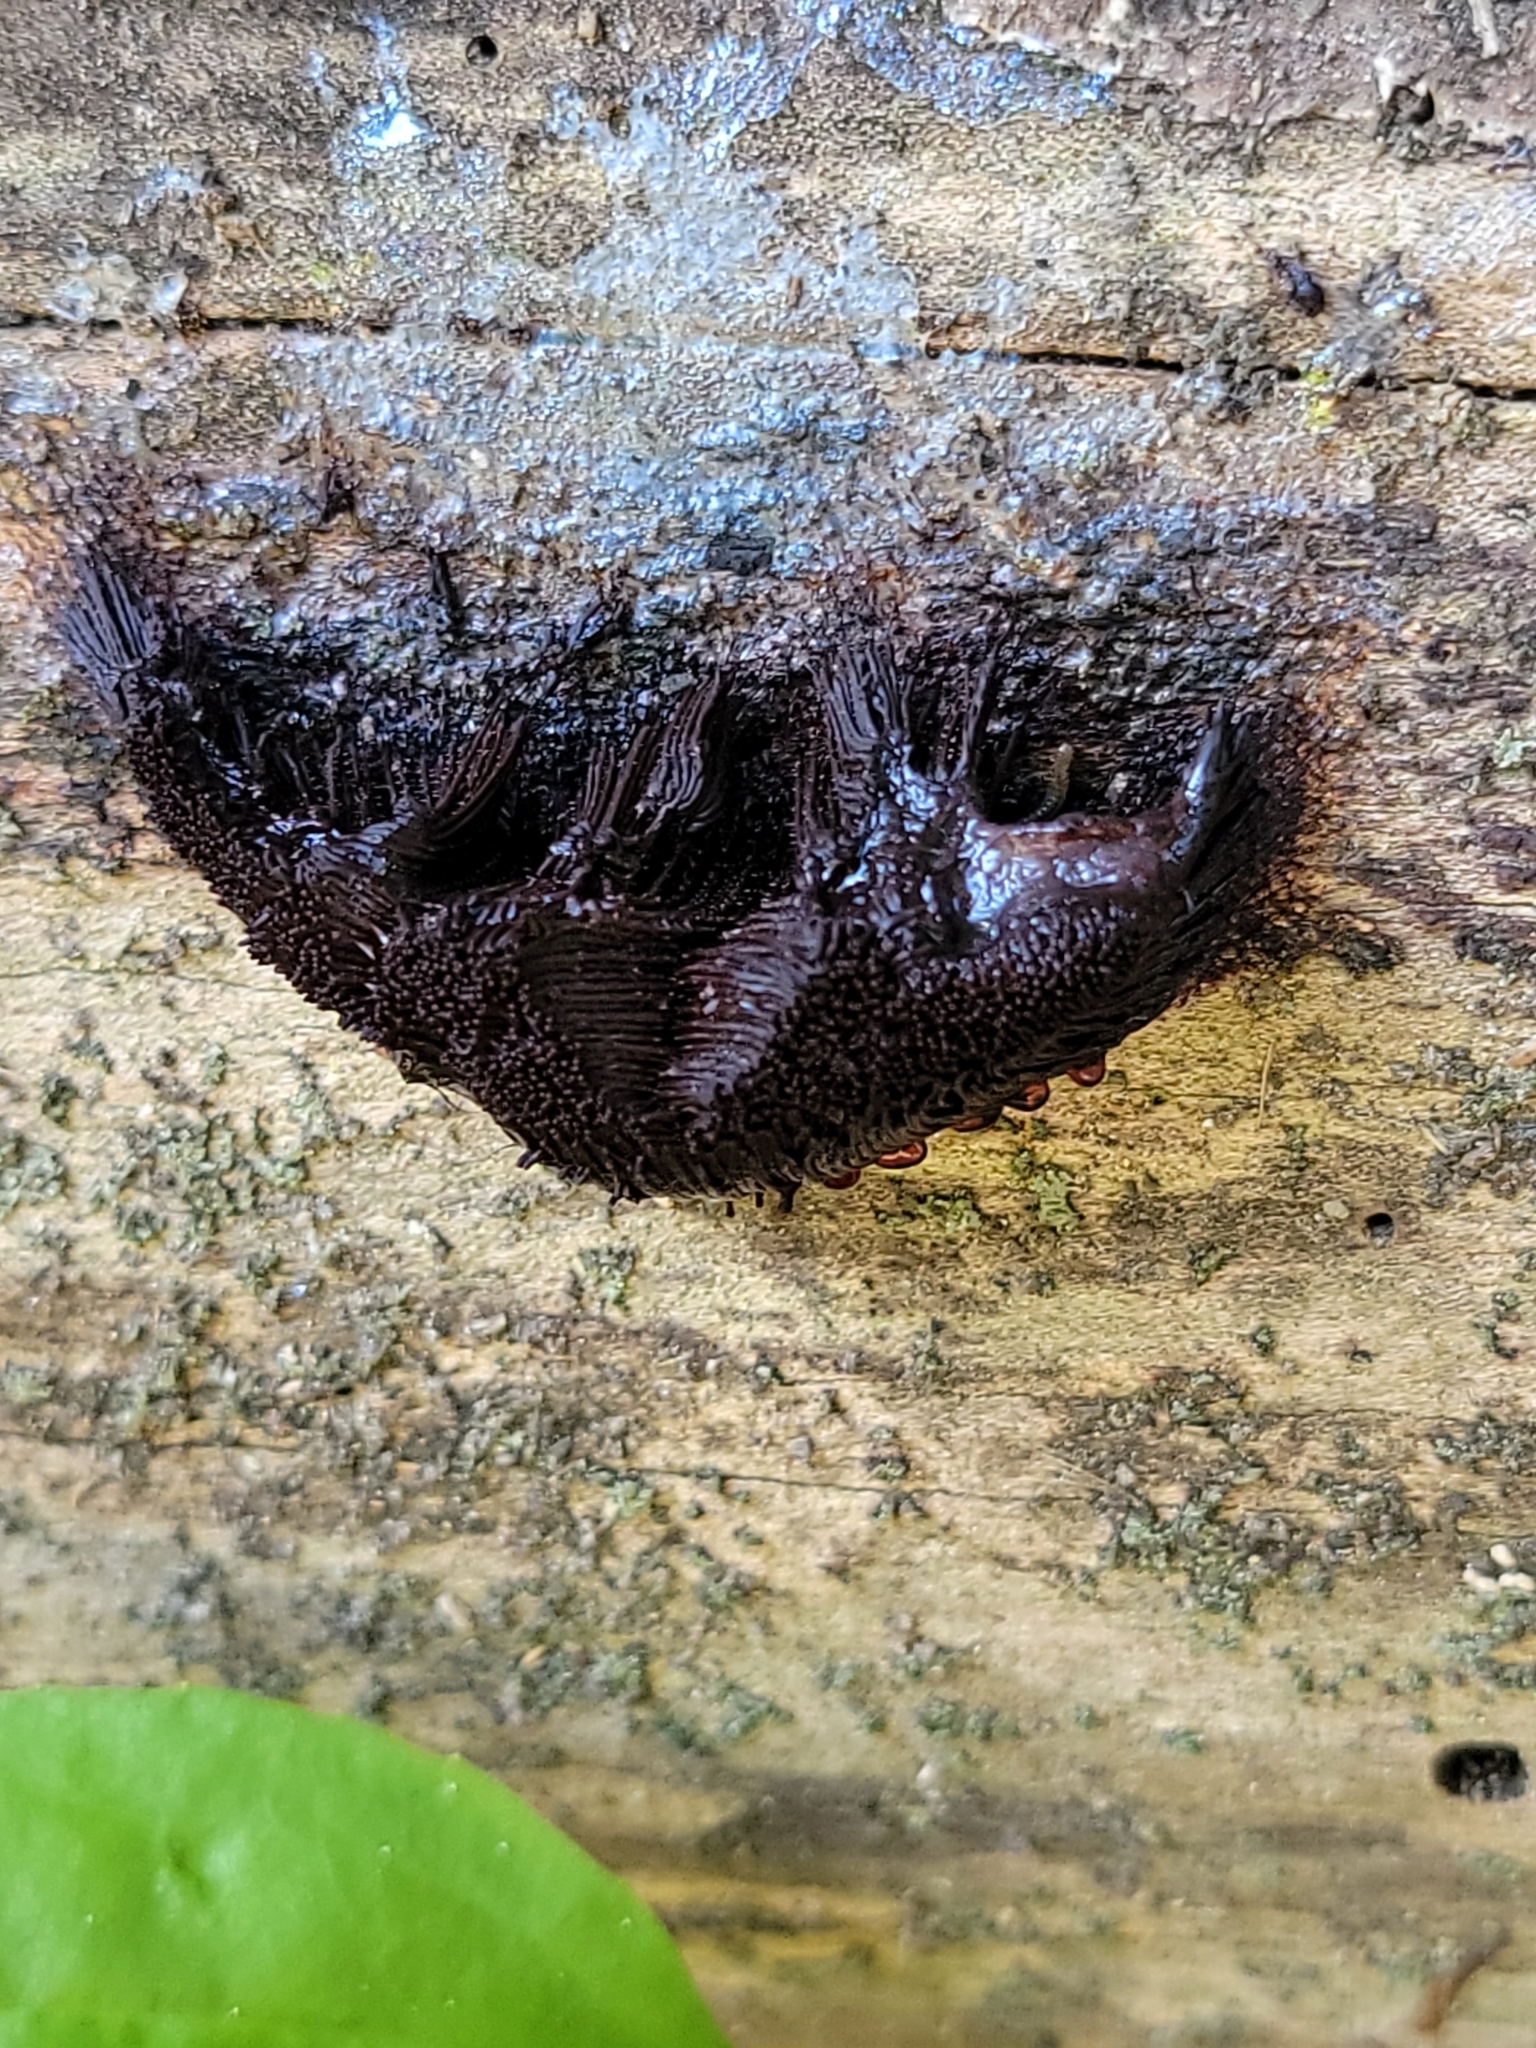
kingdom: Protozoa
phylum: Mycetozoa
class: Myxomycetes
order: Stemonitidales
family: Stemonitidaceae
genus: Stemonitis
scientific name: Stemonitis splendens
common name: Chocolate tube slime
